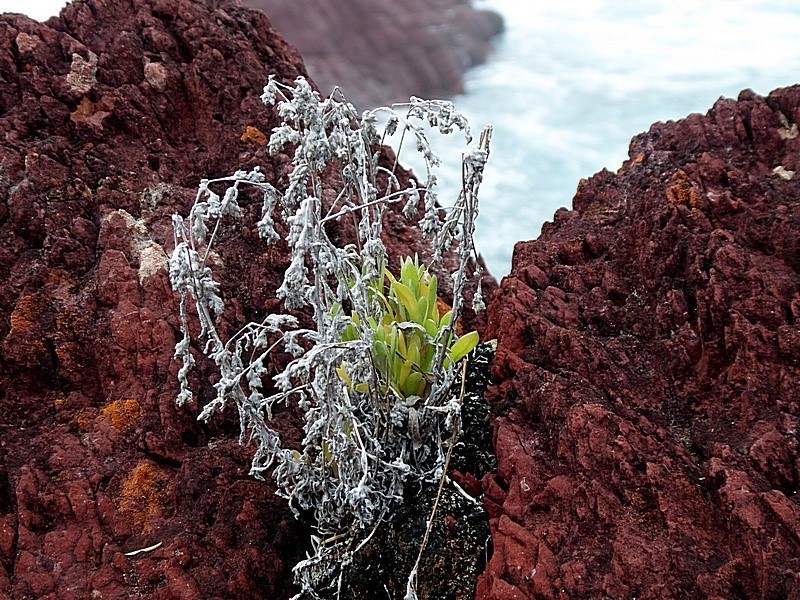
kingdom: Plantae
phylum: Tracheophyta
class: Magnoliopsida
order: Asterales
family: Asteraceae
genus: Vellereophyton
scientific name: Vellereophyton dealbatum
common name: White-cudweed
